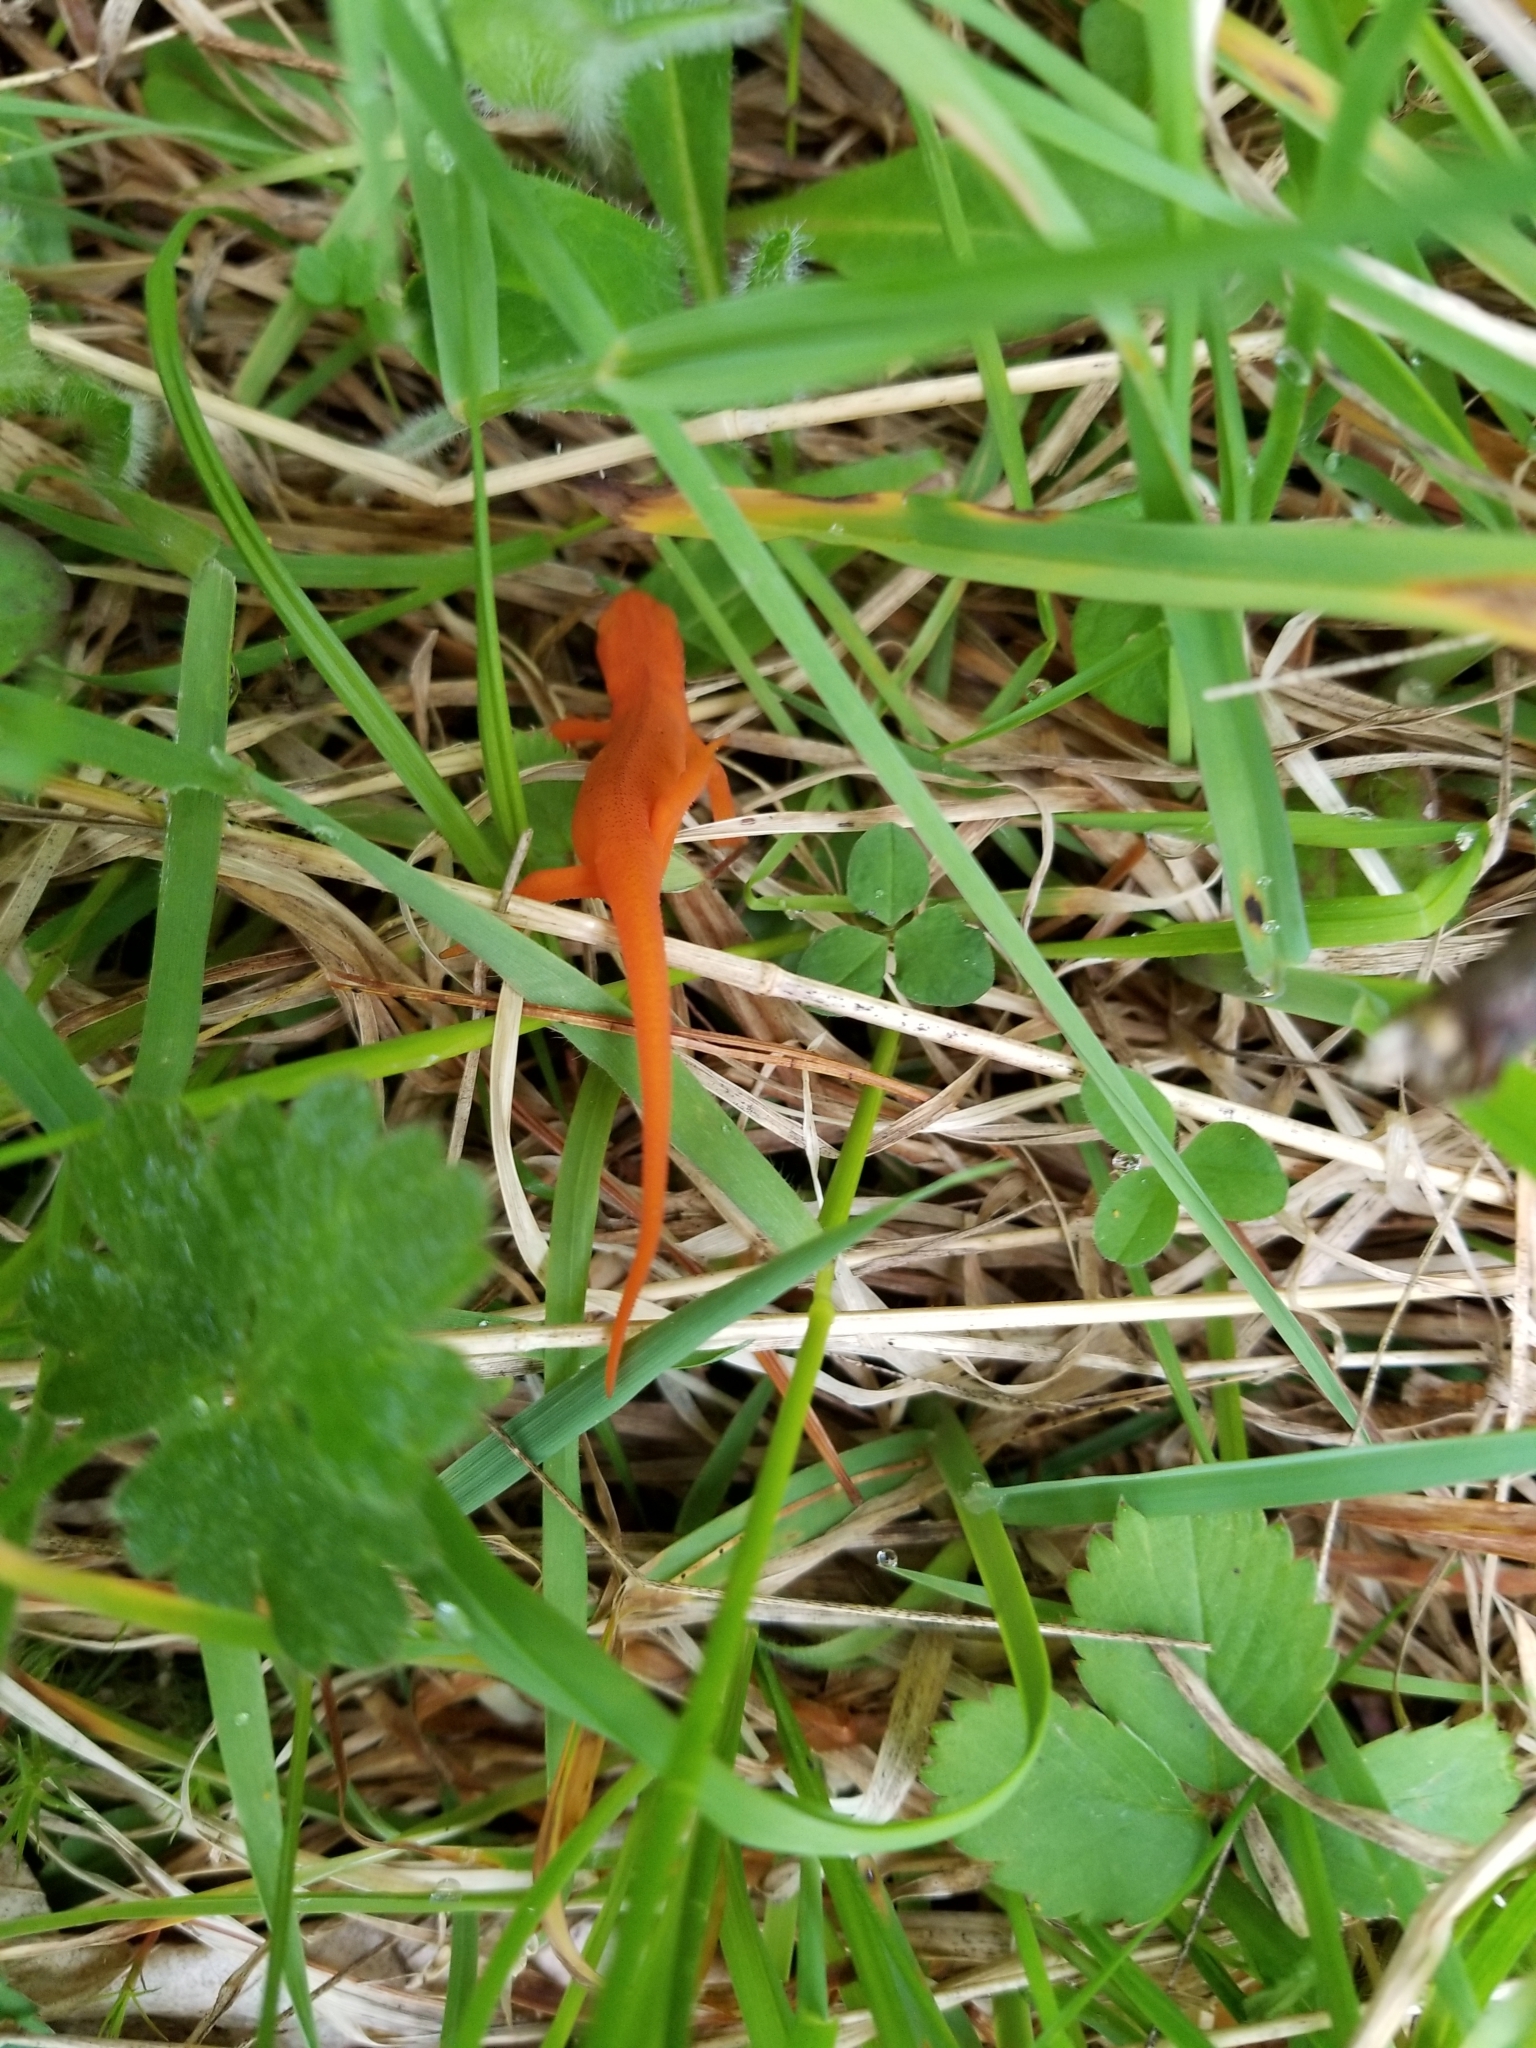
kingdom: Animalia
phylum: Chordata
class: Amphibia
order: Caudata
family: Salamandridae
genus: Notophthalmus
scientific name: Notophthalmus viridescens
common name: Eastern newt
